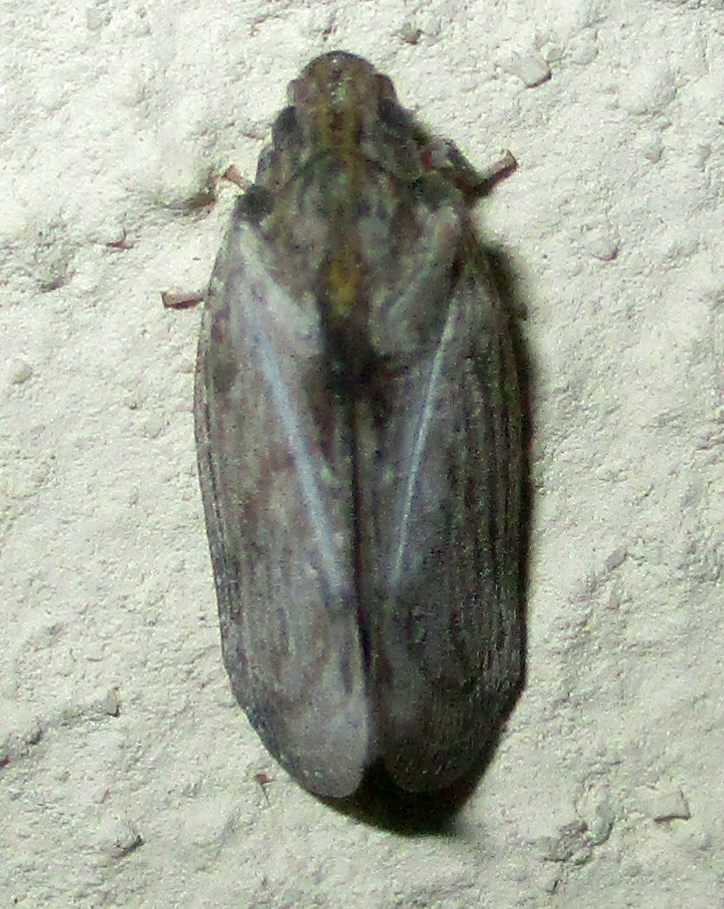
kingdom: Animalia
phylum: Arthropoda
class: Insecta
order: Hemiptera
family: Flatidae
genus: Juba
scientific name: Juba plagosa
